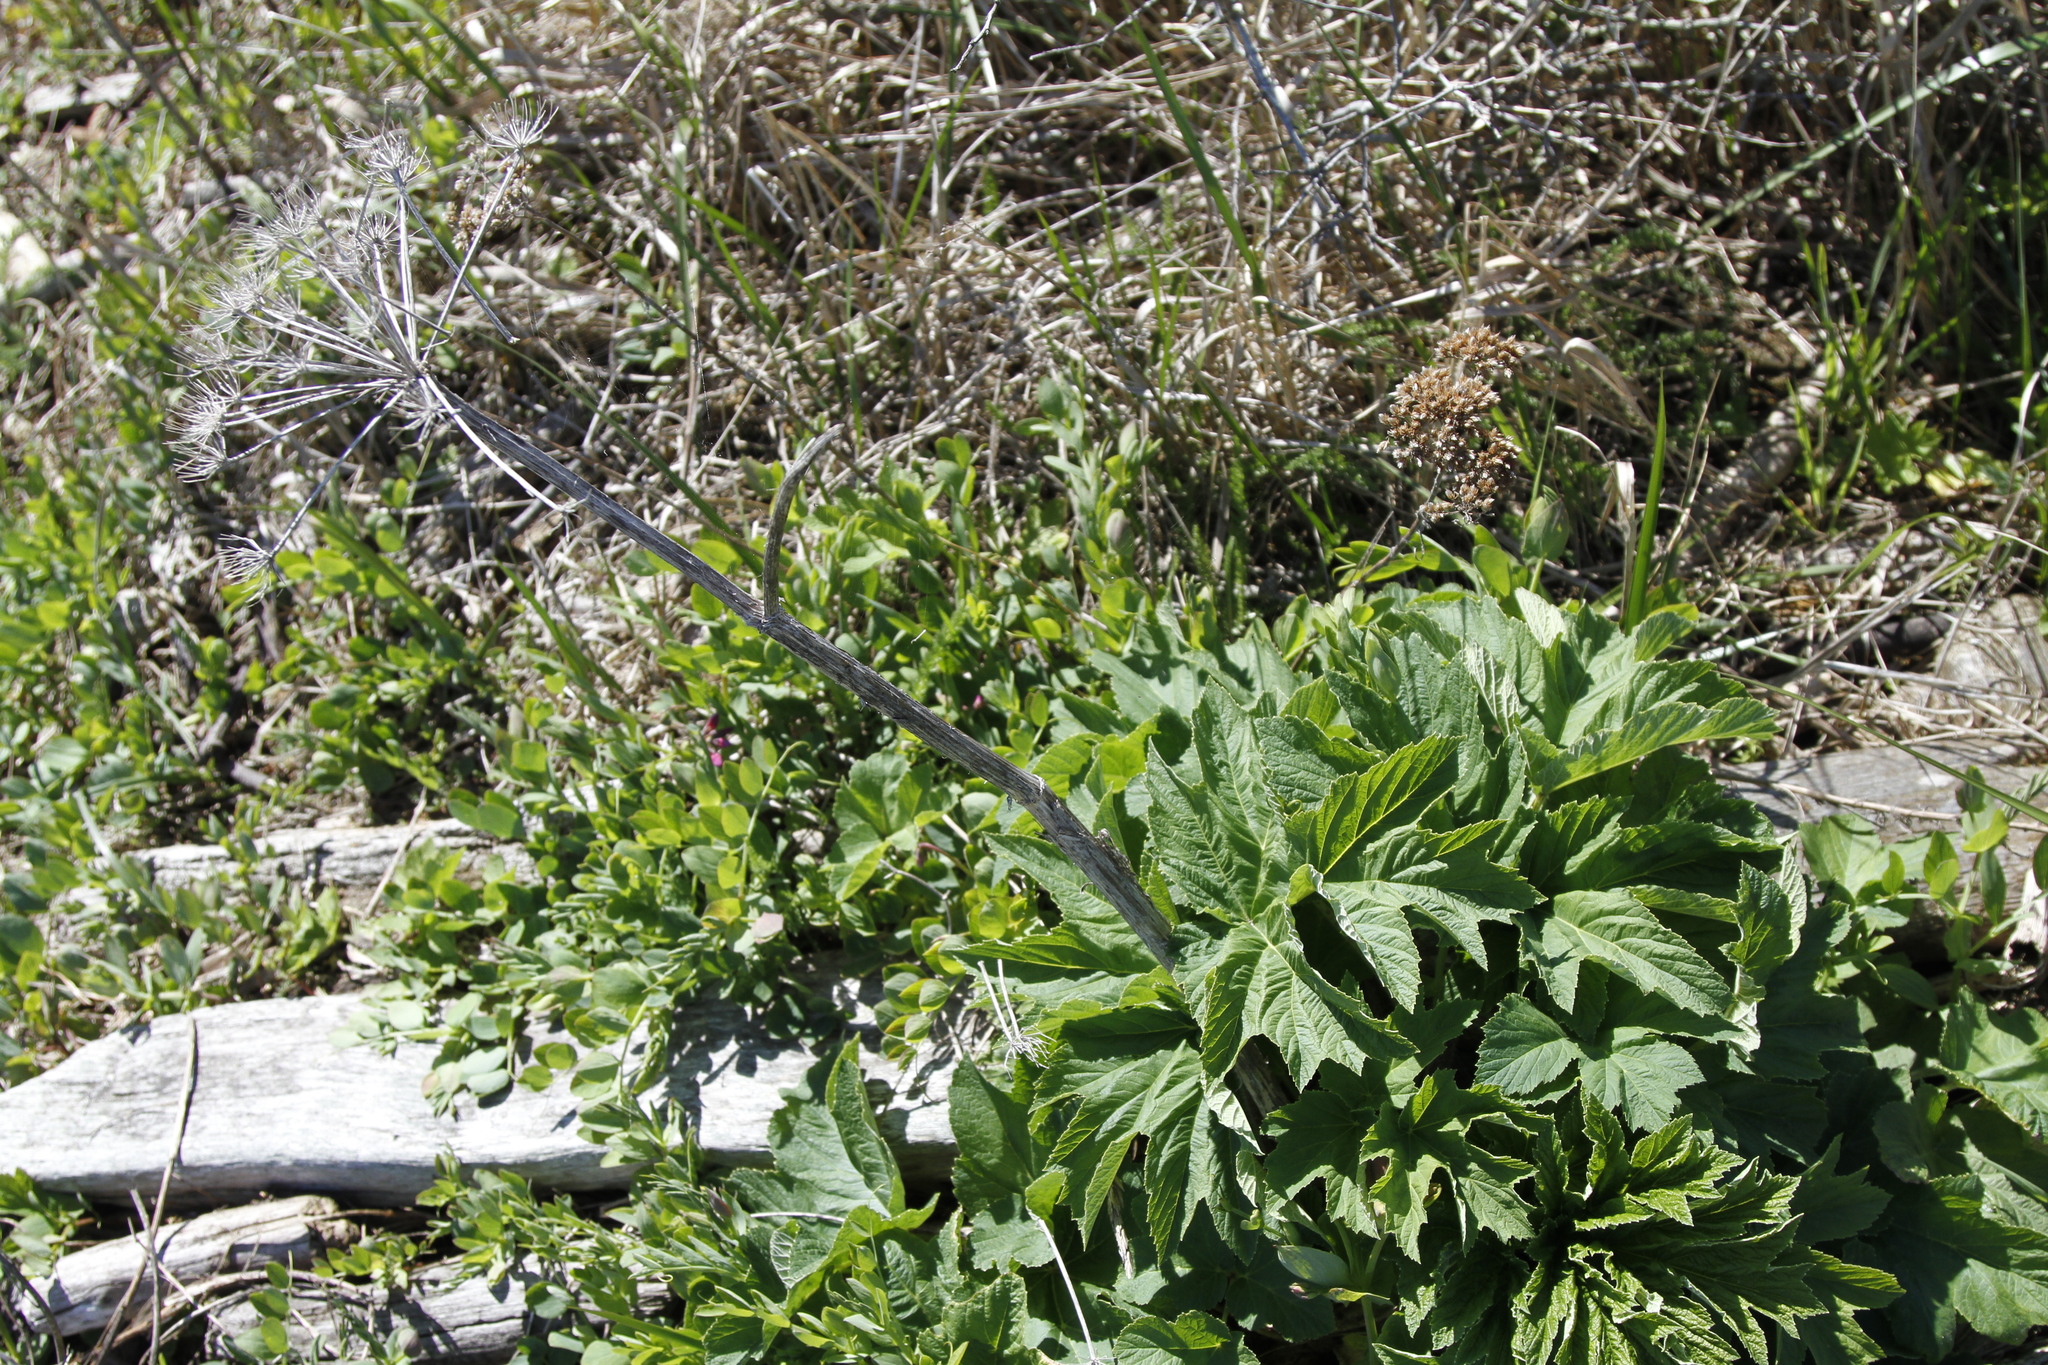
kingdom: Plantae
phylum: Tracheophyta
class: Magnoliopsida
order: Apiales
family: Apiaceae
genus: Heracleum
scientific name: Heracleum maximum
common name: American cow parsnip
